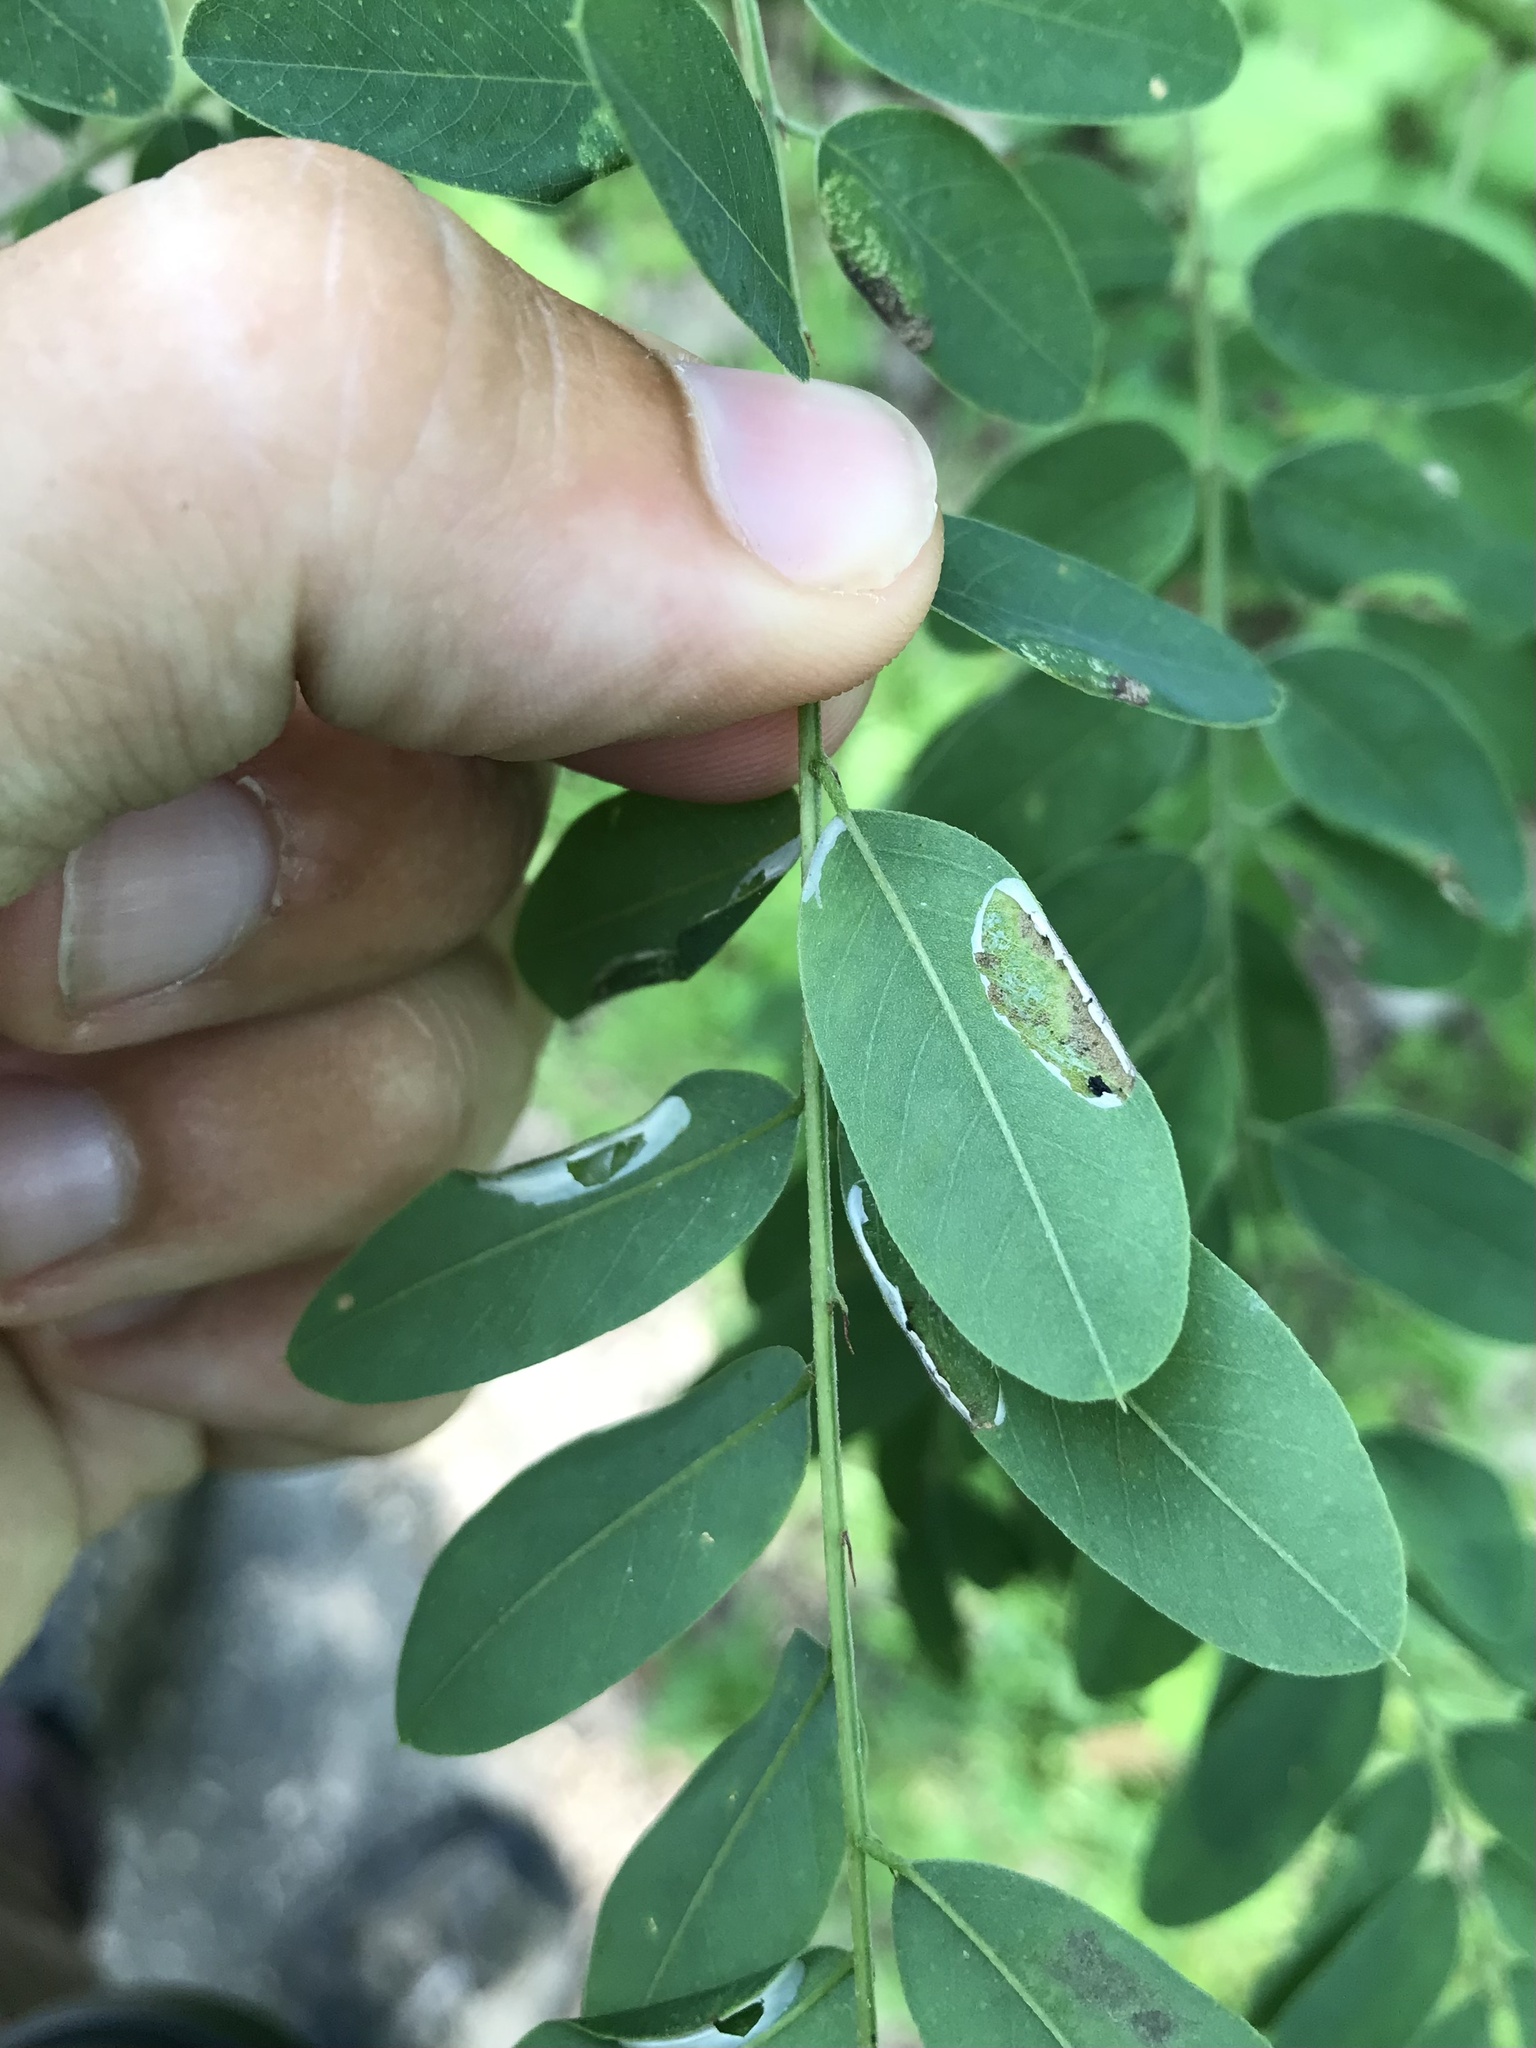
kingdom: Animalia
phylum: Arthropoda
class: Insecta
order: Lepidoptera
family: Gracillariidae
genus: Macrosaccus
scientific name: Macrosaccus uhlerella
